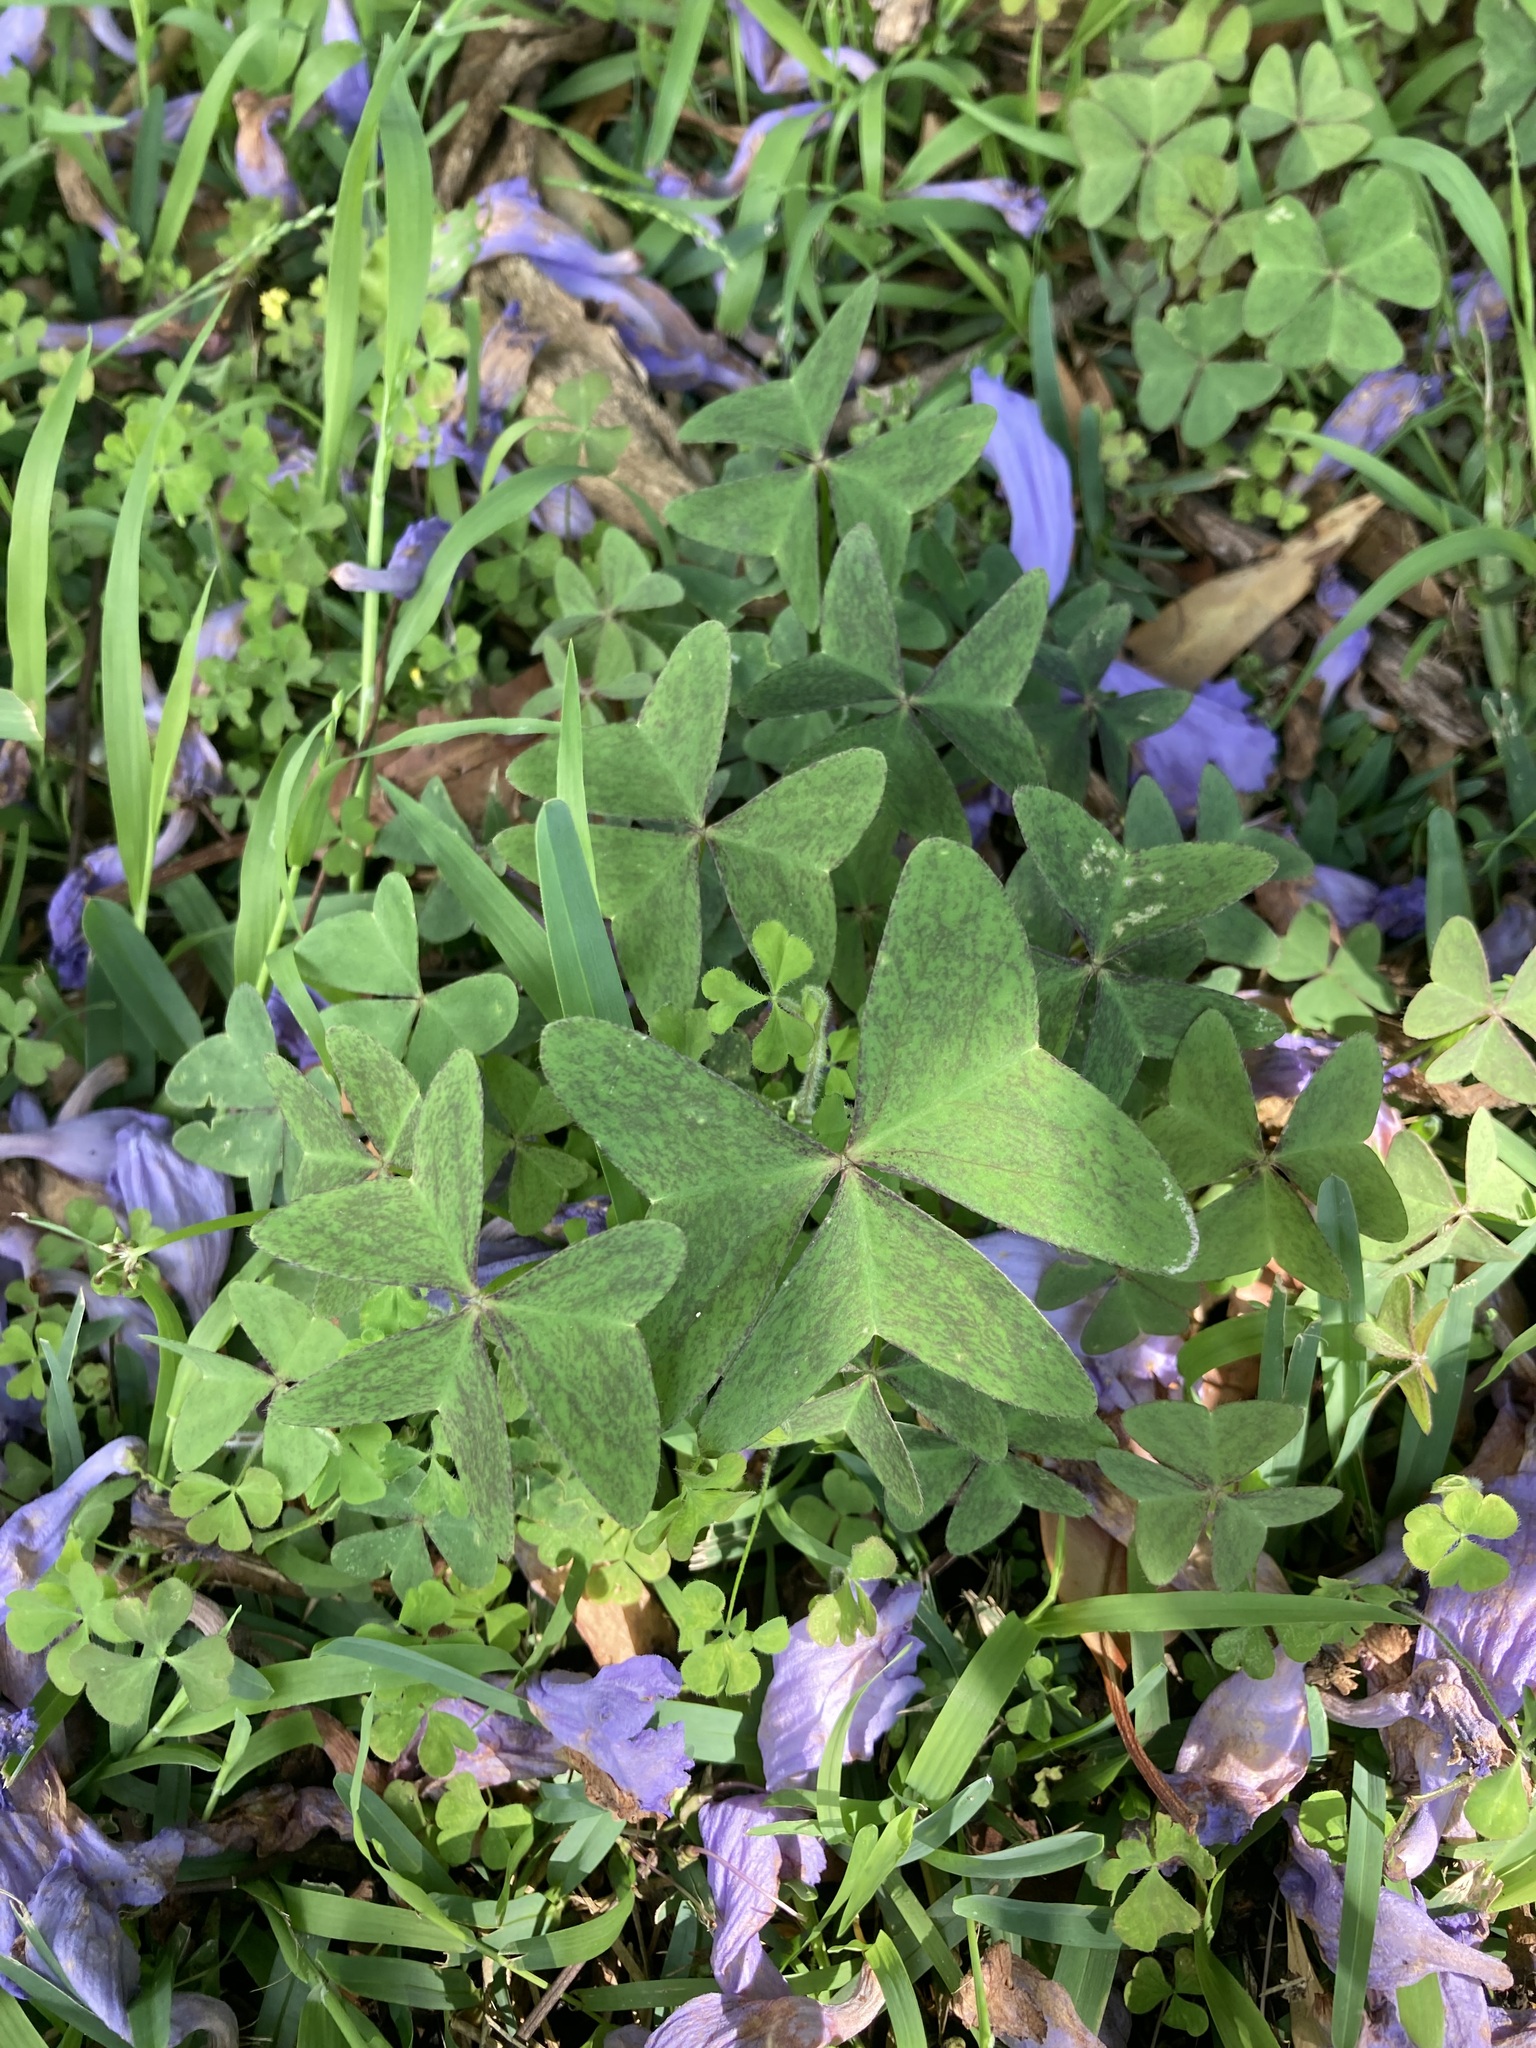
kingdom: Plantae
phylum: Tracheophyta
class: Magnoliopsida
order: Oxalidales
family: Oxalidaceae
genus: Oxalis
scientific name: Oxalis latifolia
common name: Garden pink-sorrel
